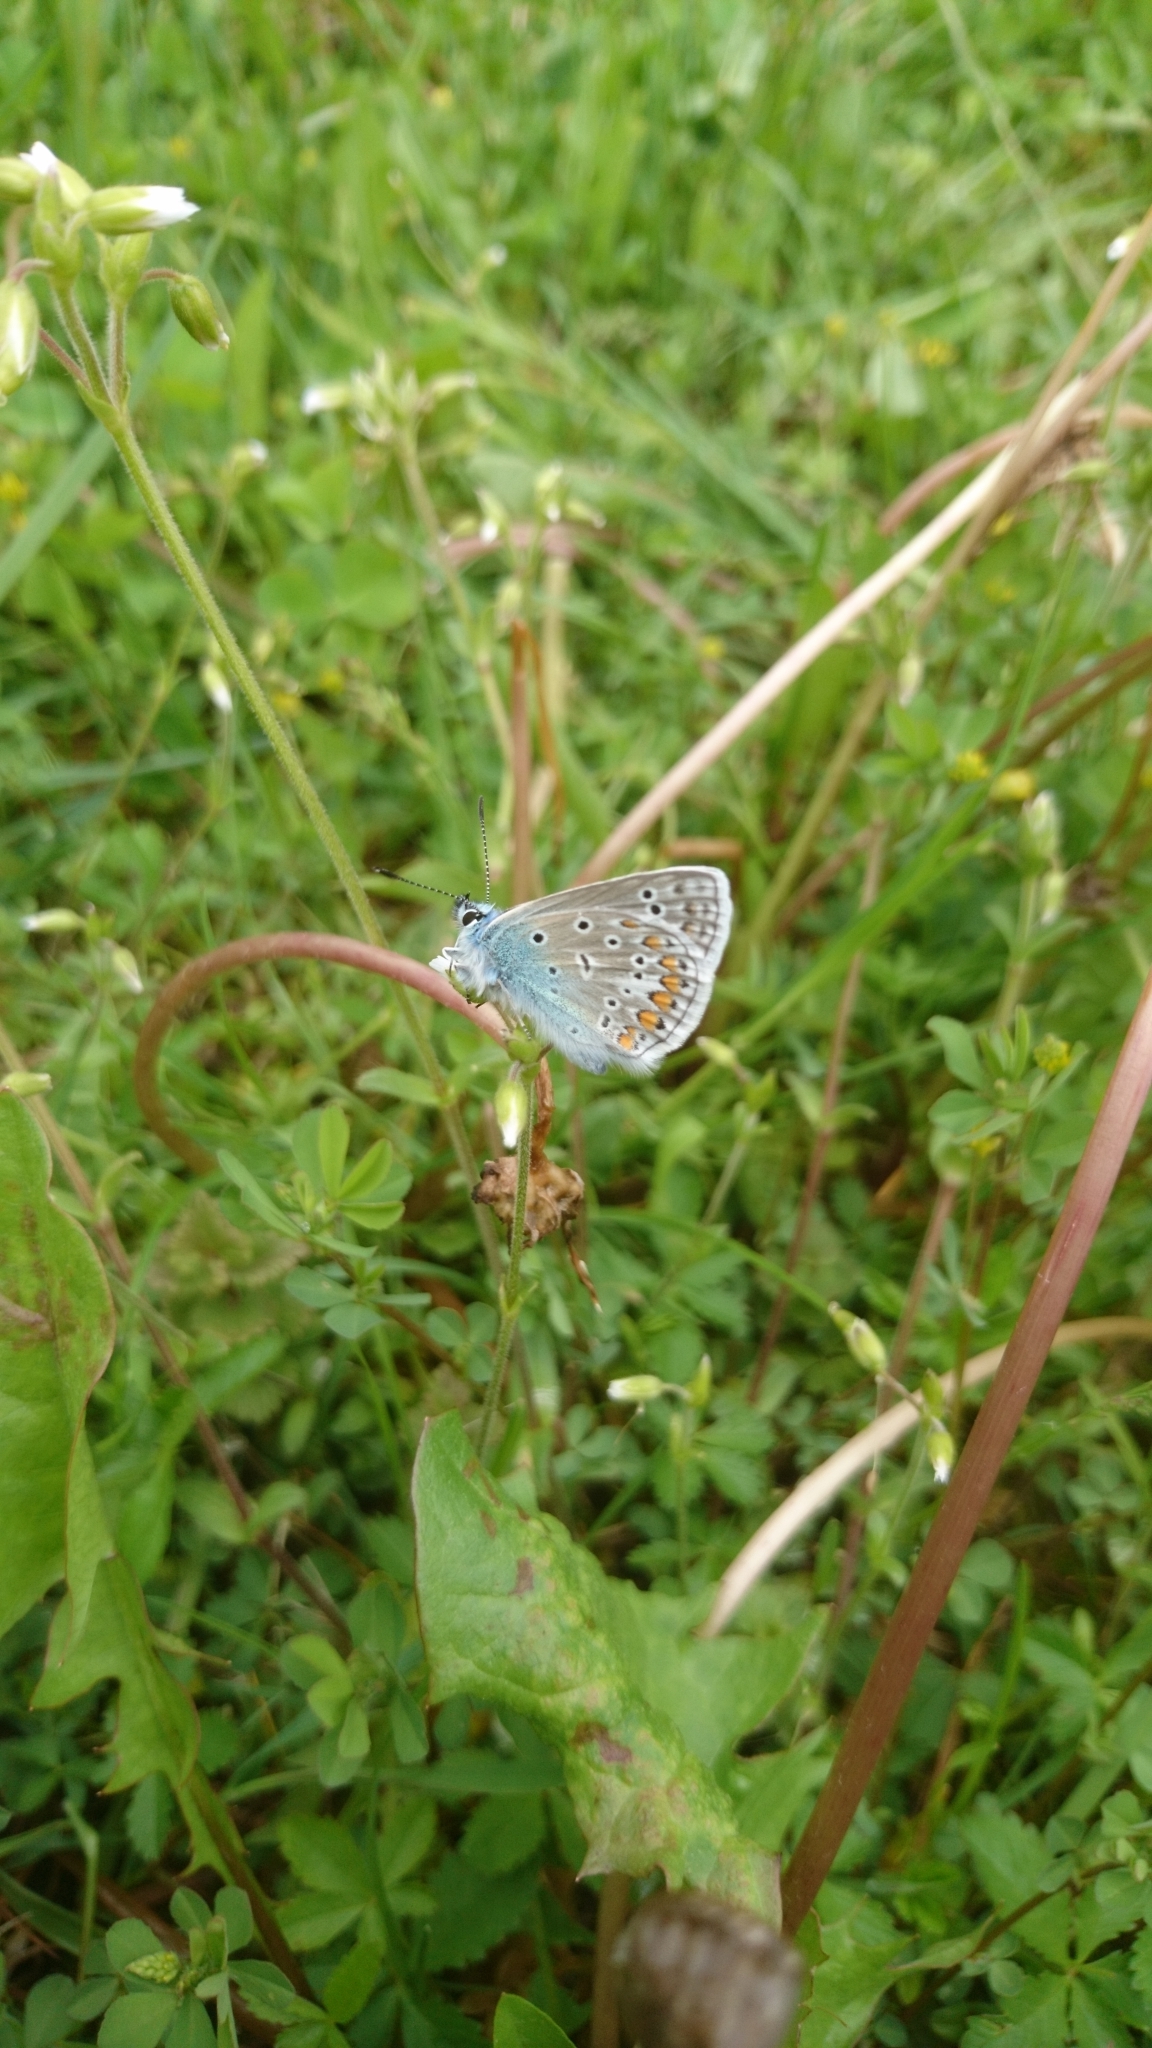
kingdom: Animalia
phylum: Arthropoda
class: Insecta
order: Lepidoptera
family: Lycaenidae
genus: Polyommatus
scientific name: Polyommatus icarus
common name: Common blue
